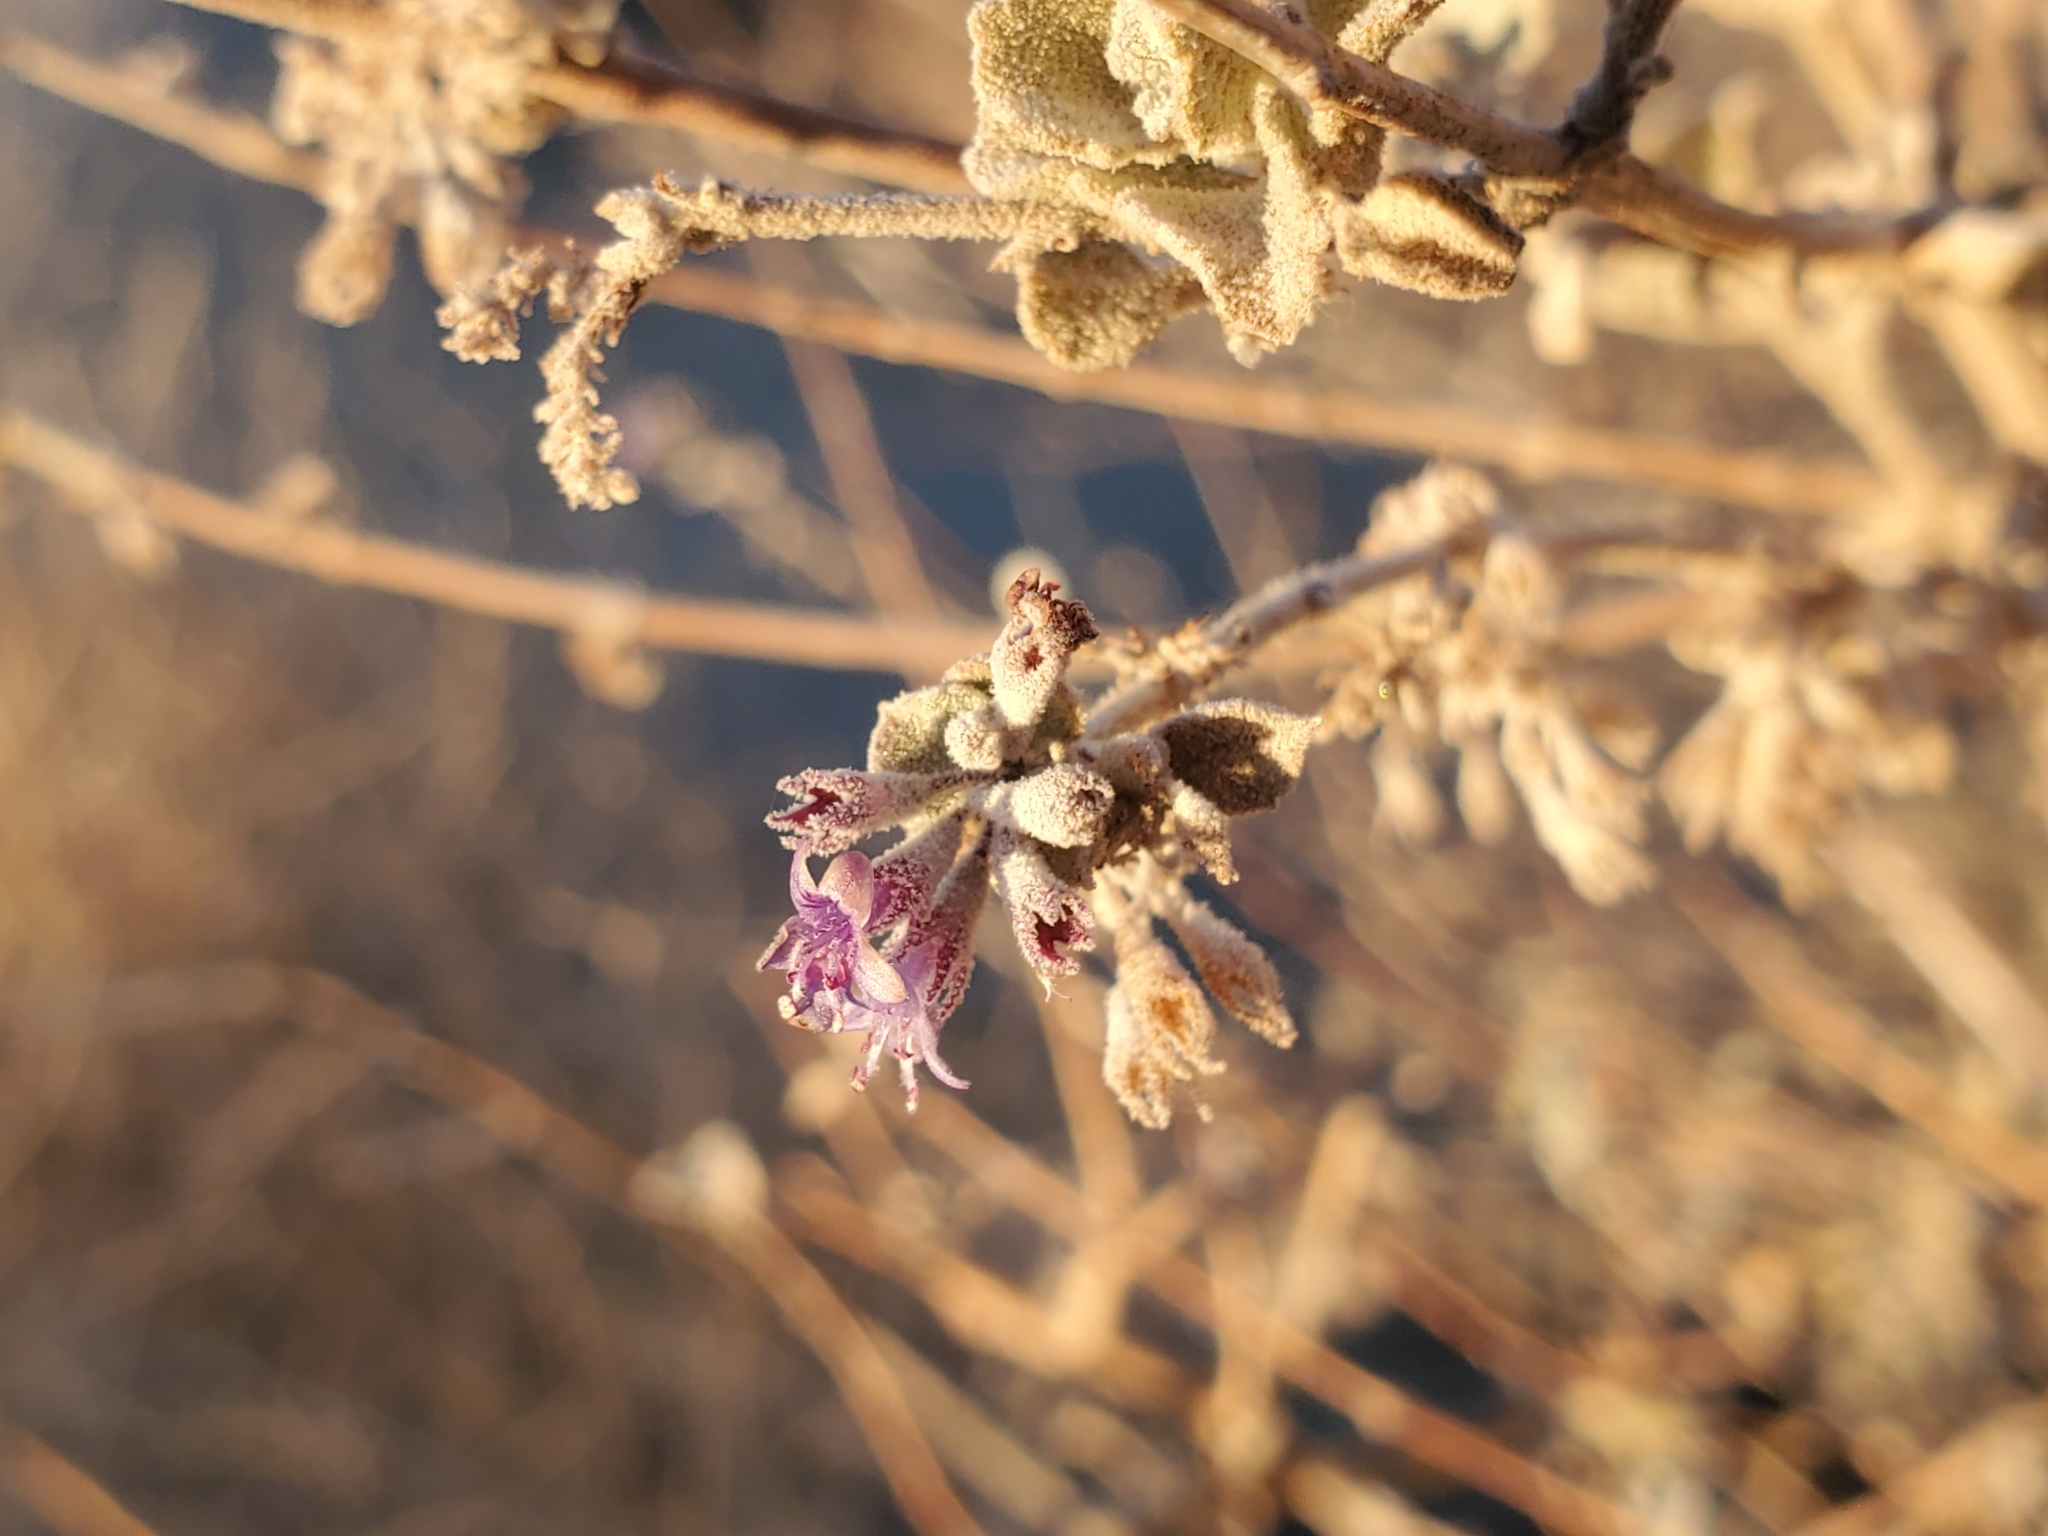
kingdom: Plantae
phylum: Tracheophyta
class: Magnoliopsida
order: Lamiales
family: Lamiaceae
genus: Condea
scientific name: Condea emoryi
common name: Chia
